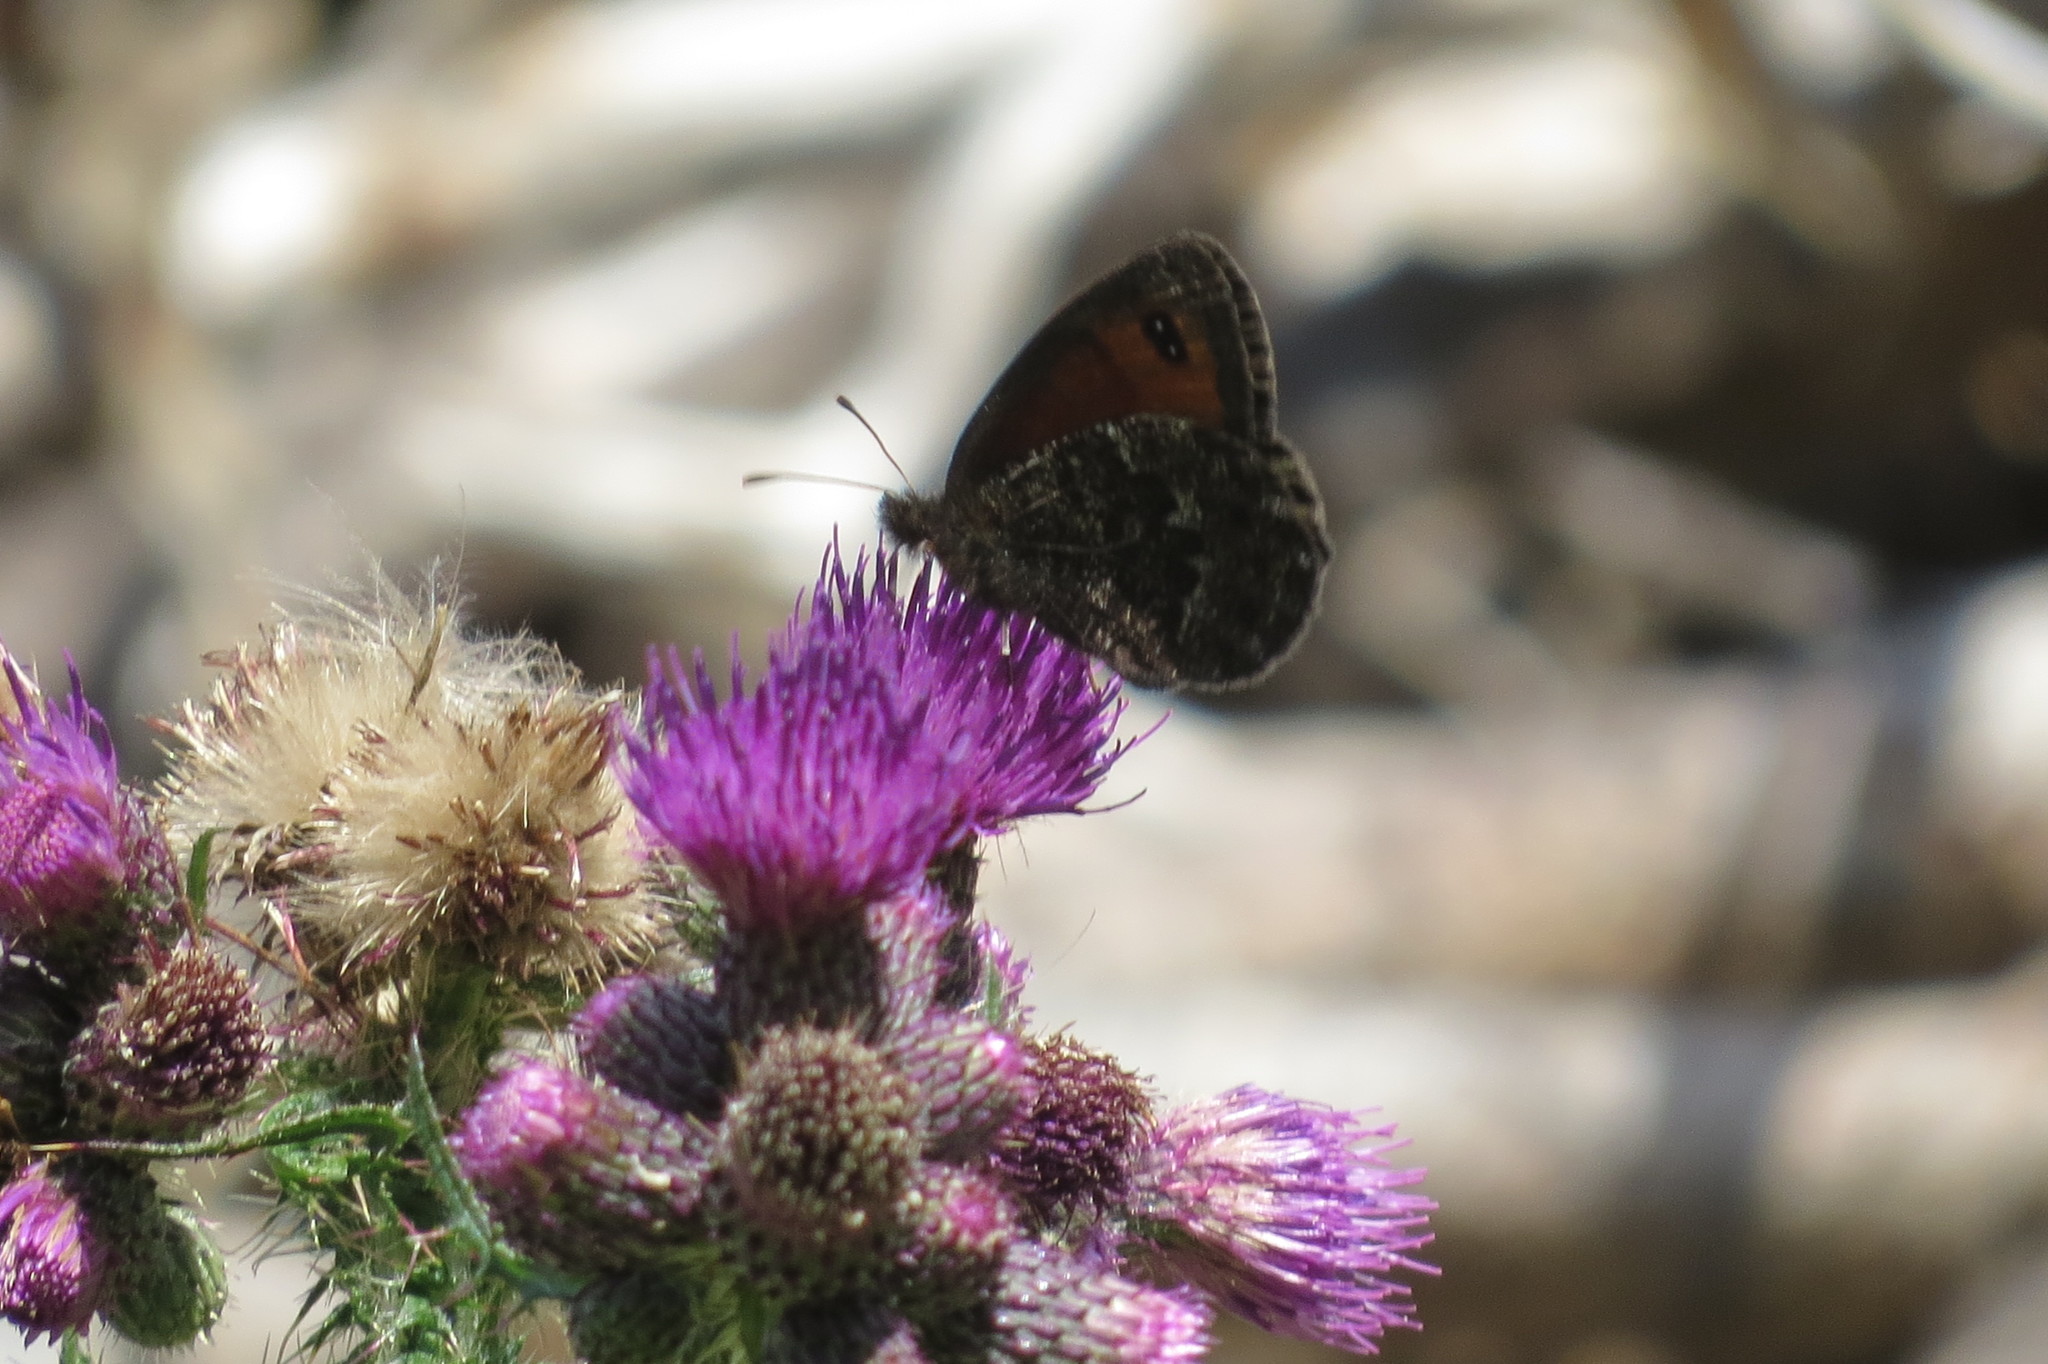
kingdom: Animalia
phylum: Arthropoda
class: Insecta
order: Lepidoptera
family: Nymphalidae
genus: Erebia
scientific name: Erebia montanus
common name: Marbled ringlet
